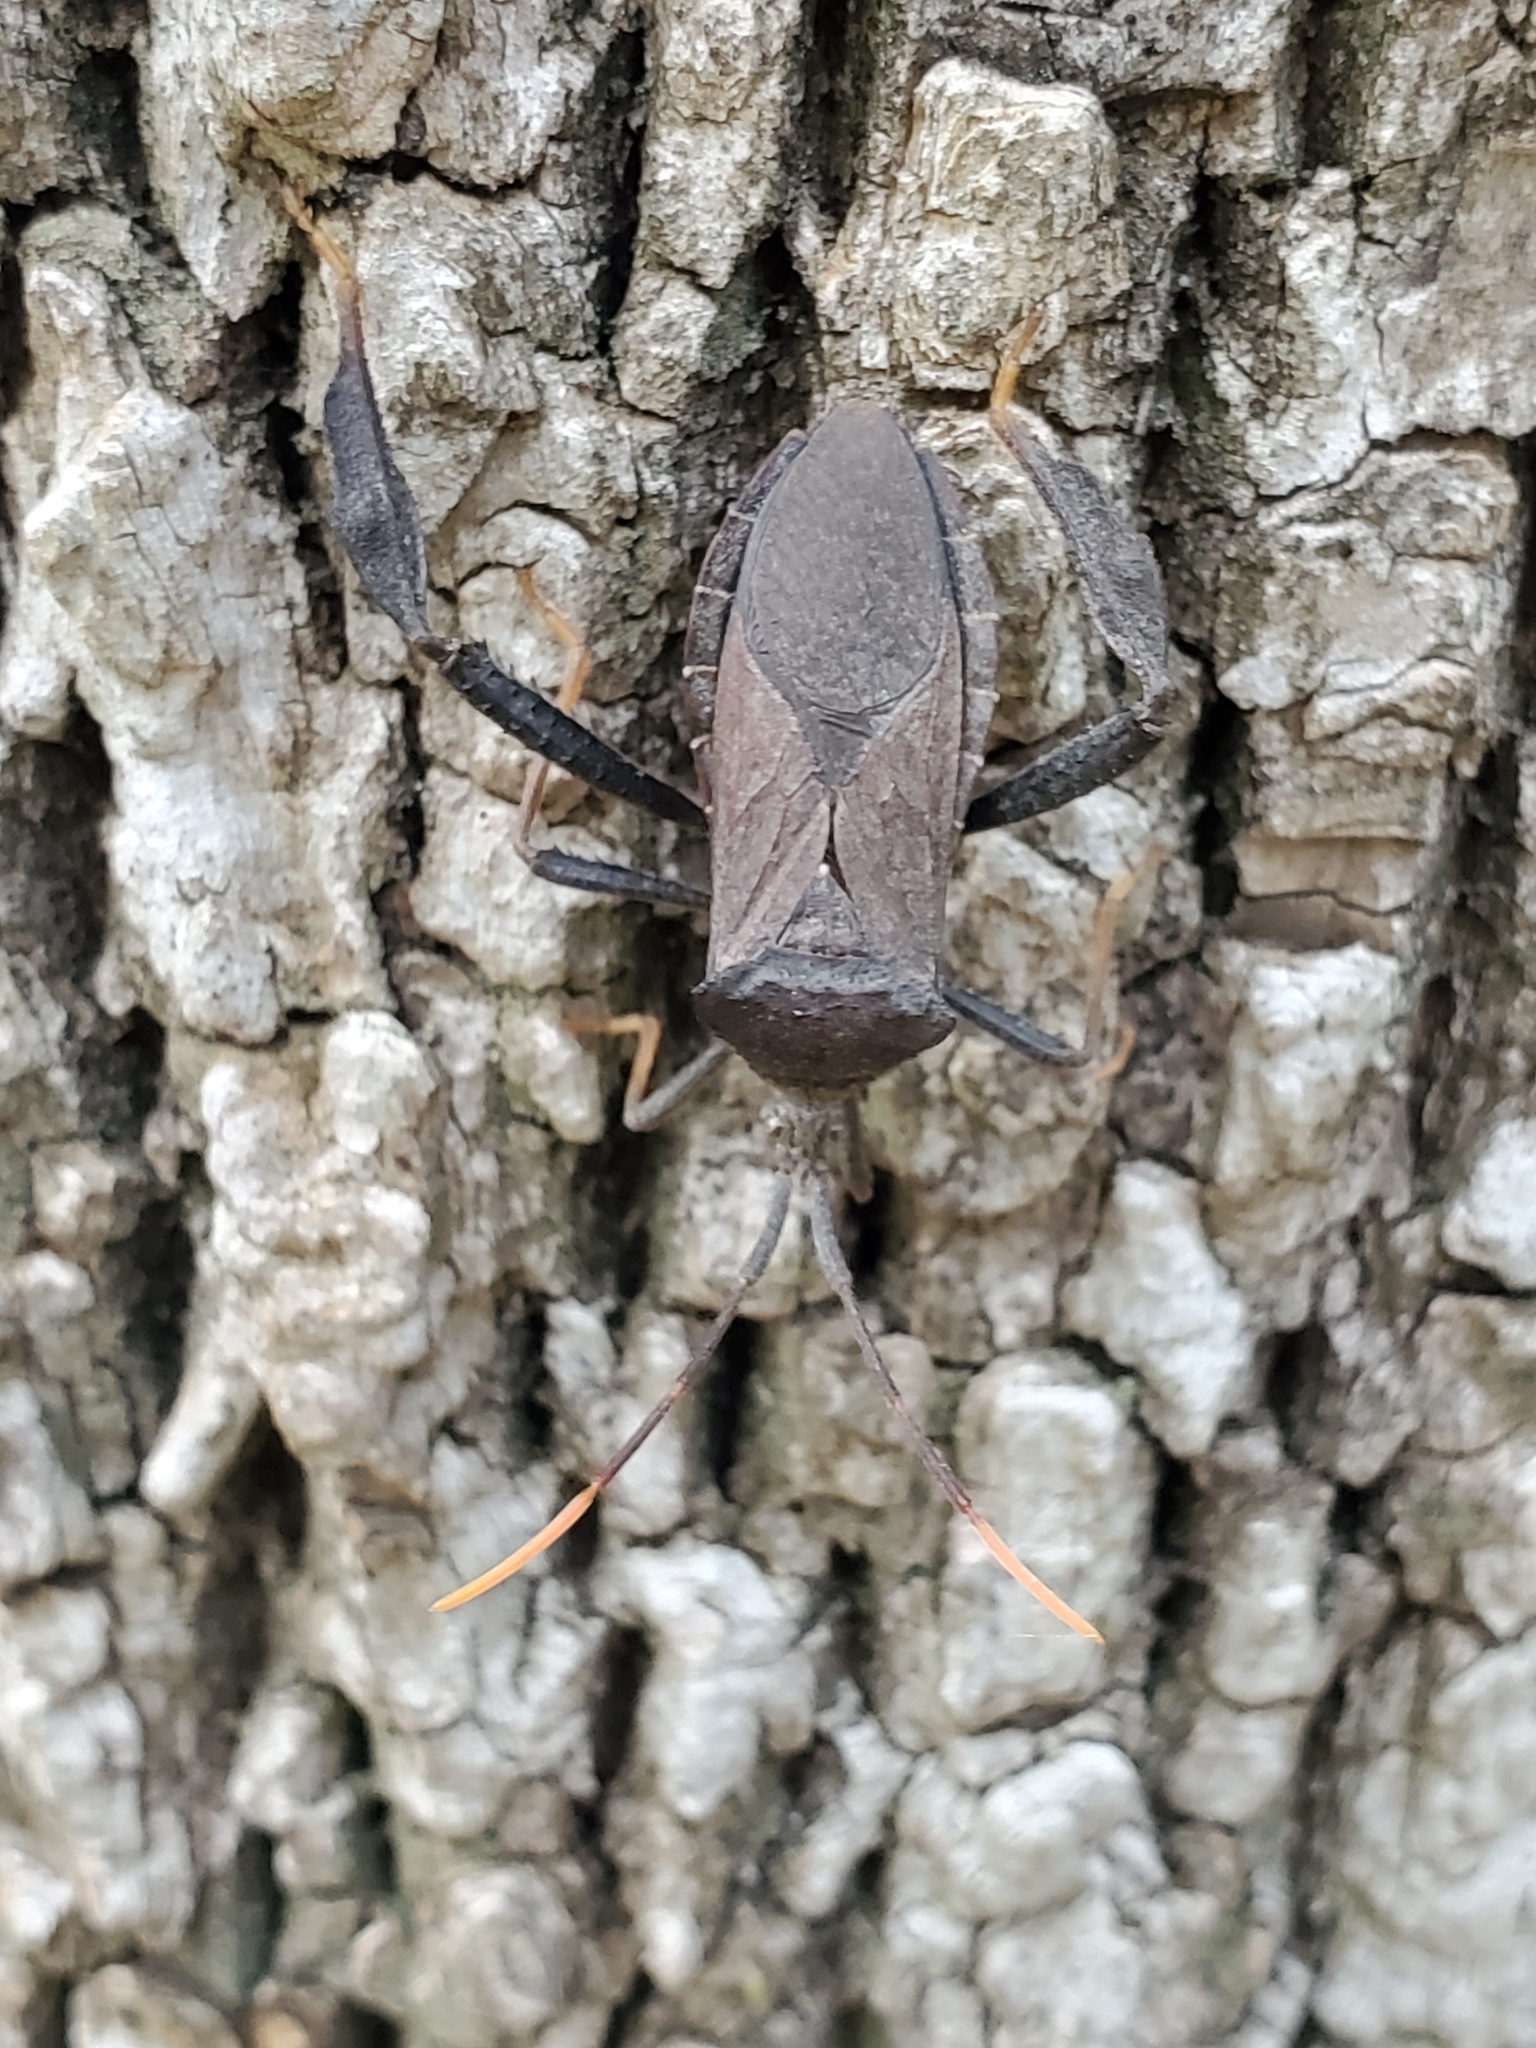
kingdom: Animalia
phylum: Arthropoda
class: Insecta
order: Hemiptera
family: Coreidae
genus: Acanthocephala
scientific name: Acanthocephala terminalis
